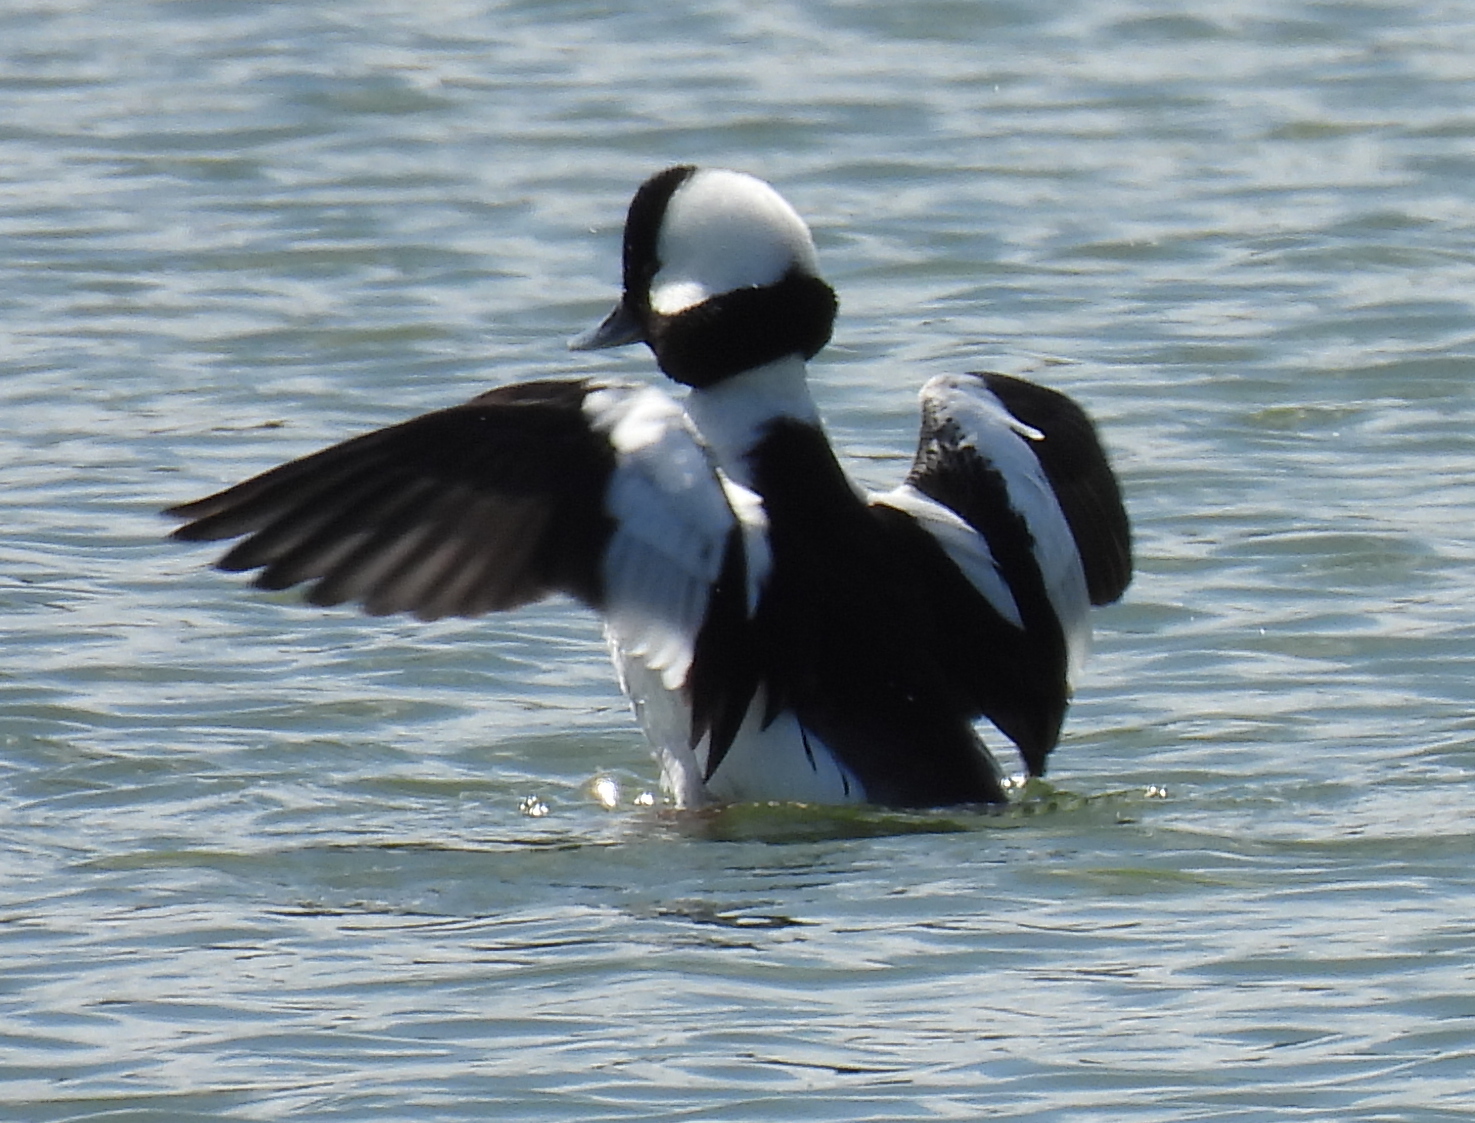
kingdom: Animalia
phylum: Chordata
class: Aves
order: Anseriformes
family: Anatidae
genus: Bucephala
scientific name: Bucephala albeola
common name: Bufflehead
